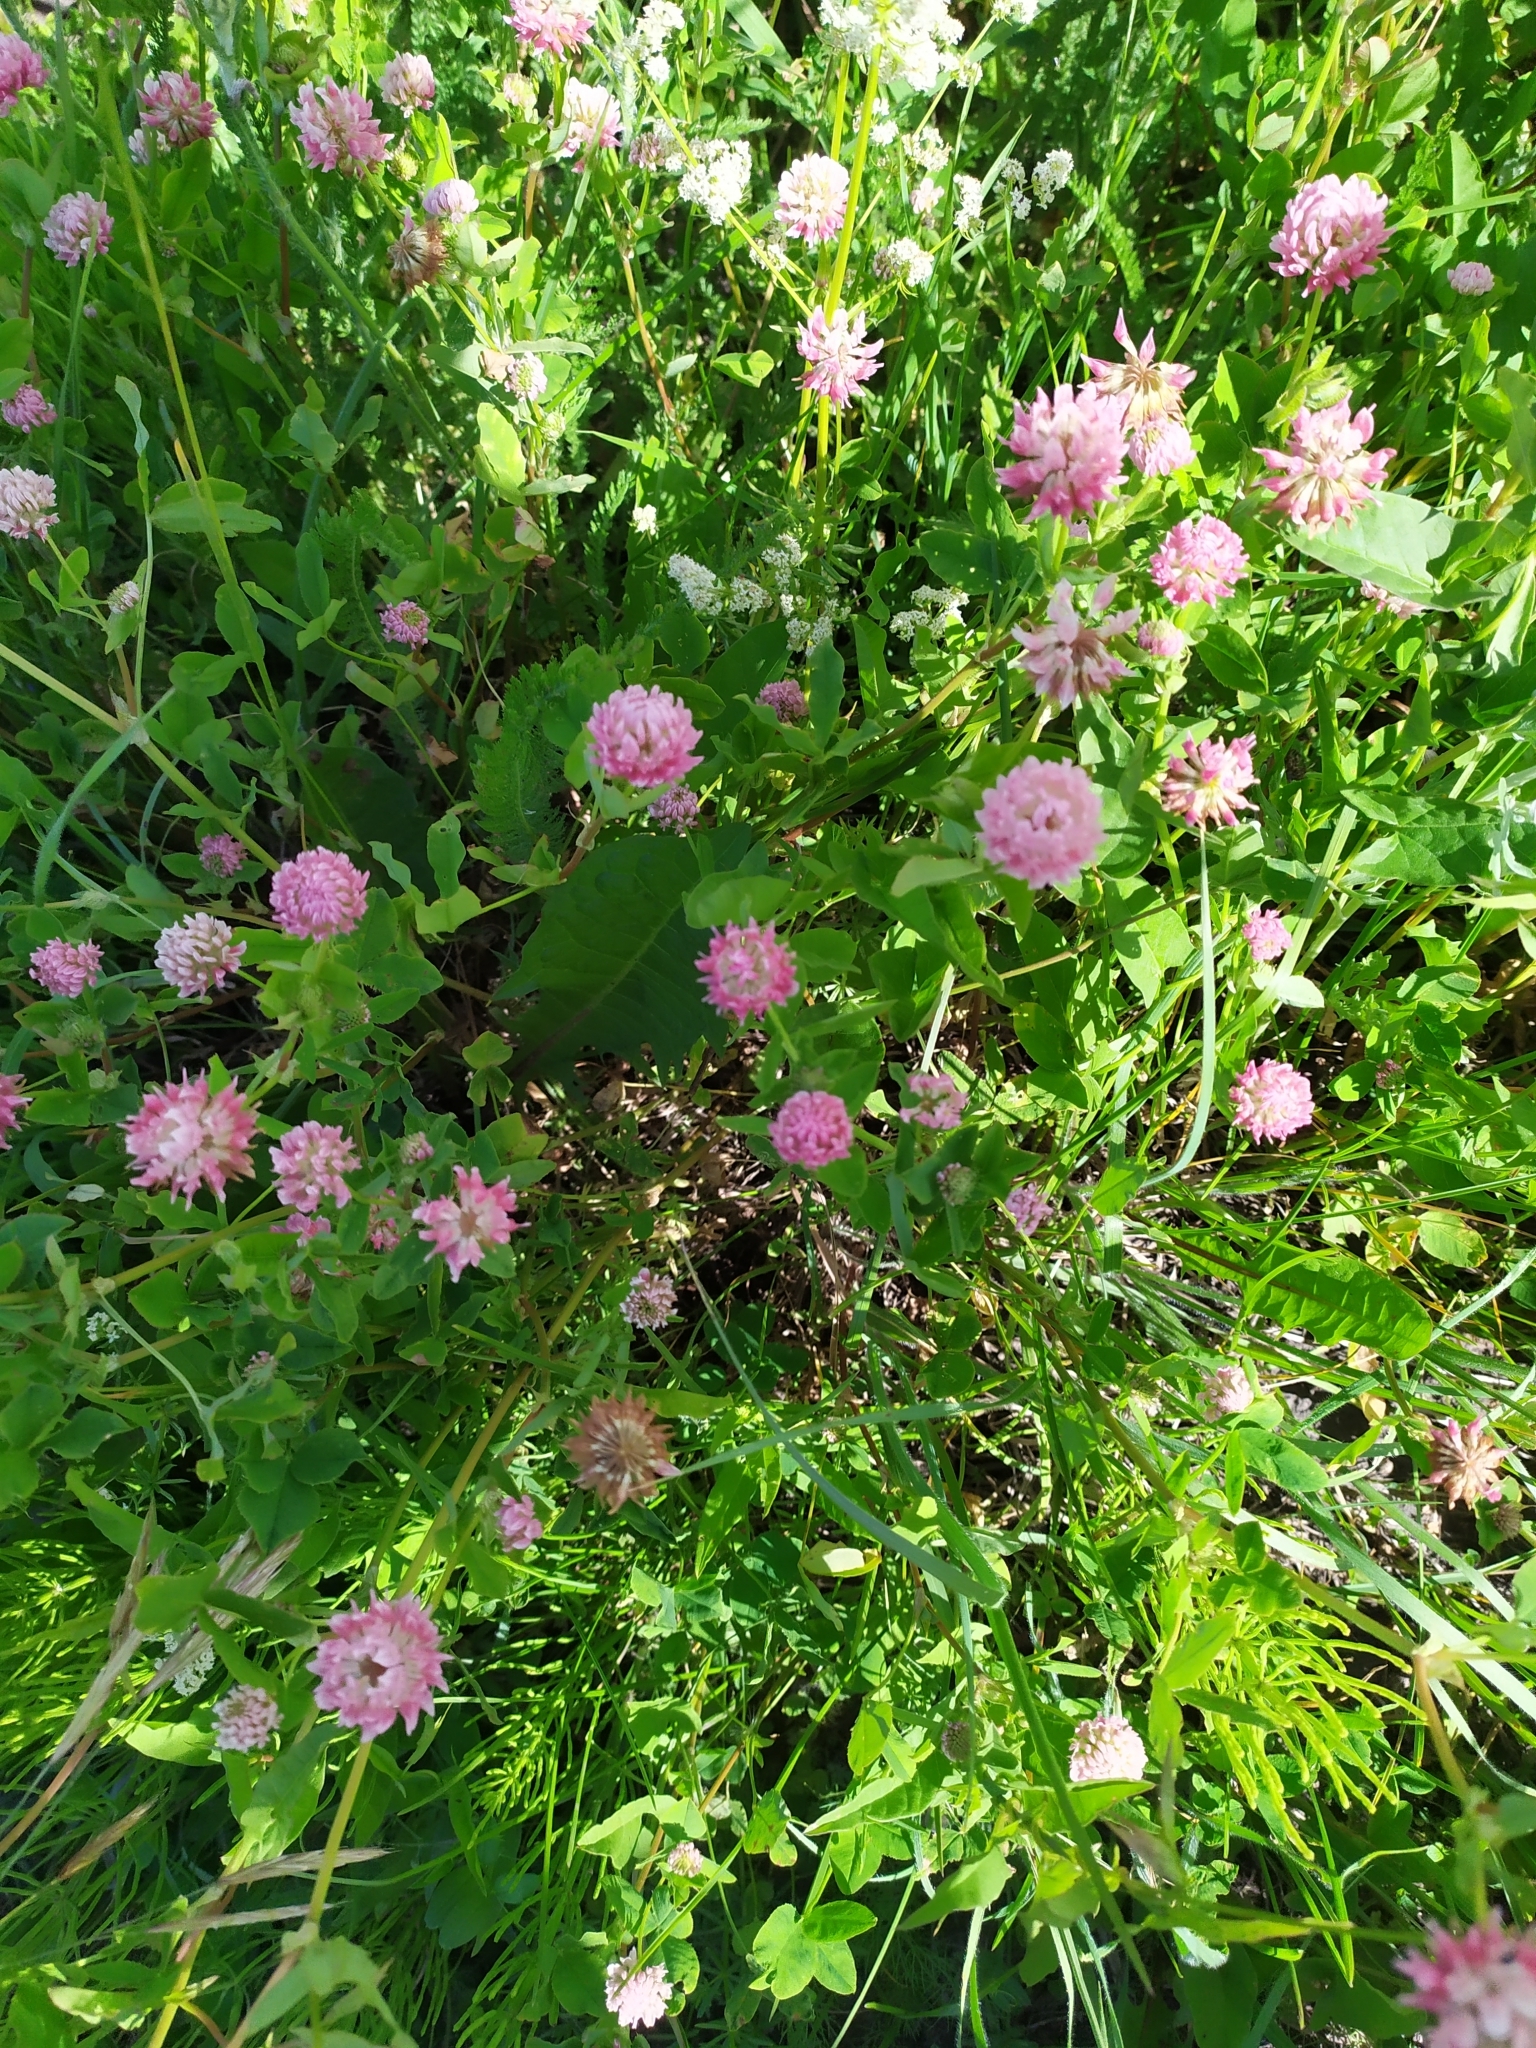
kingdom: Plantae
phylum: Tracheophyta
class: Magnoliopsida
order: Fabales
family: Fabaceae
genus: Trifolium
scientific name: Trifolium hybridum
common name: Alsike clover
